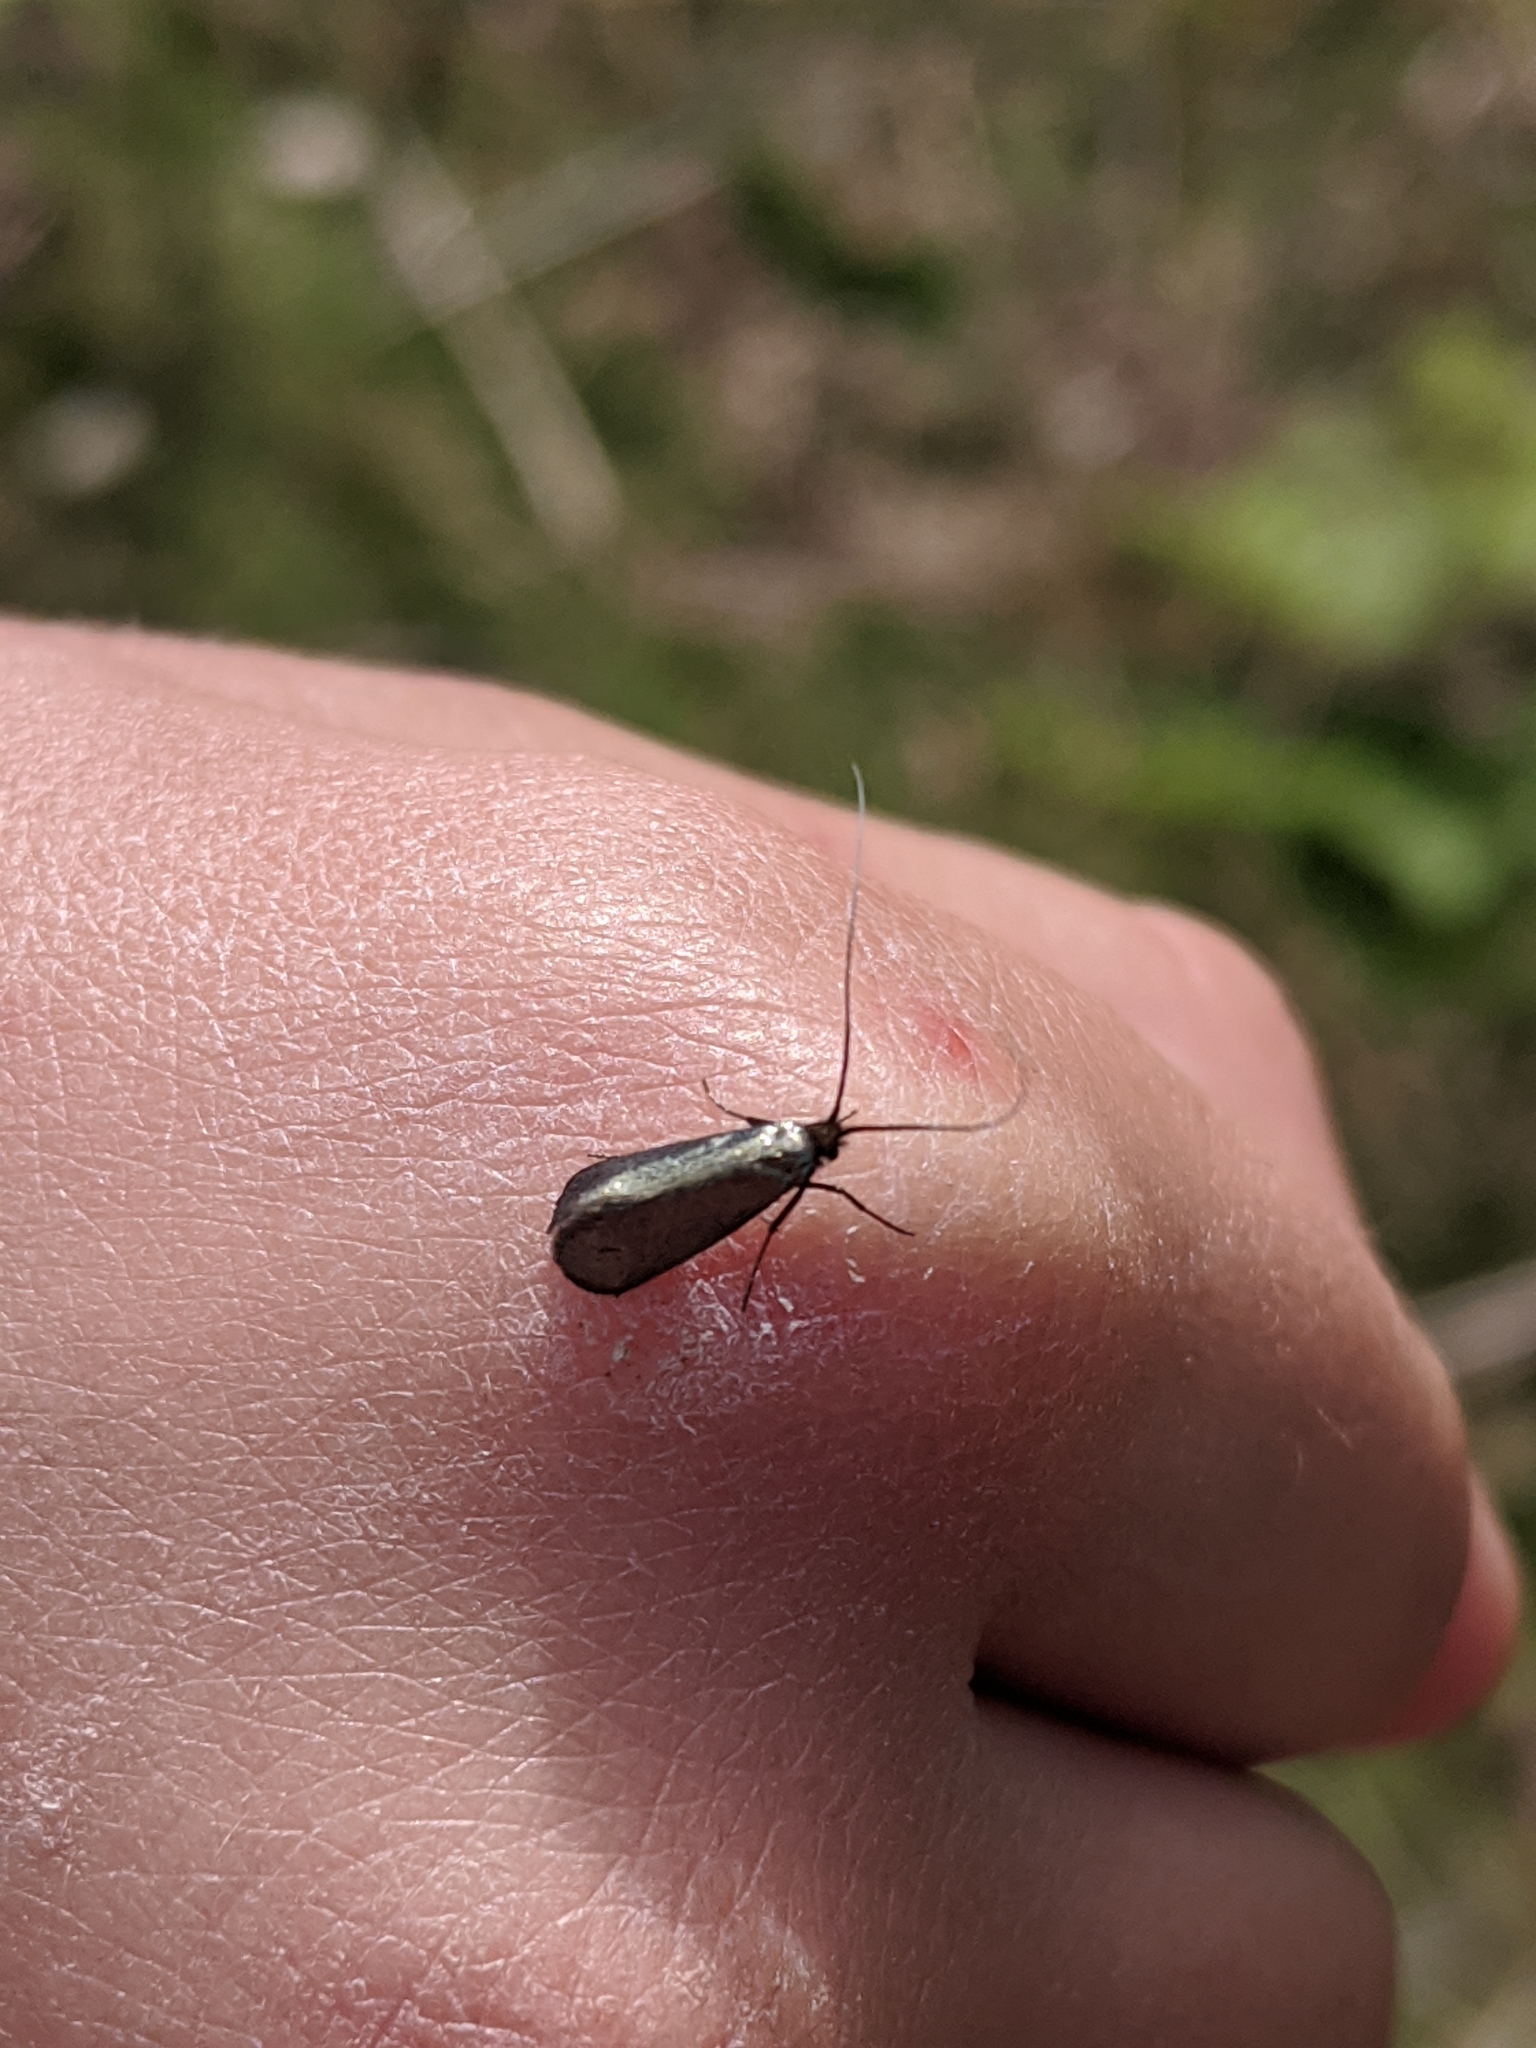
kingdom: Animalia
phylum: Arthropoda
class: Insecta
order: Lepidoptera
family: Adelidae
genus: Adela
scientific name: Adela viridella
